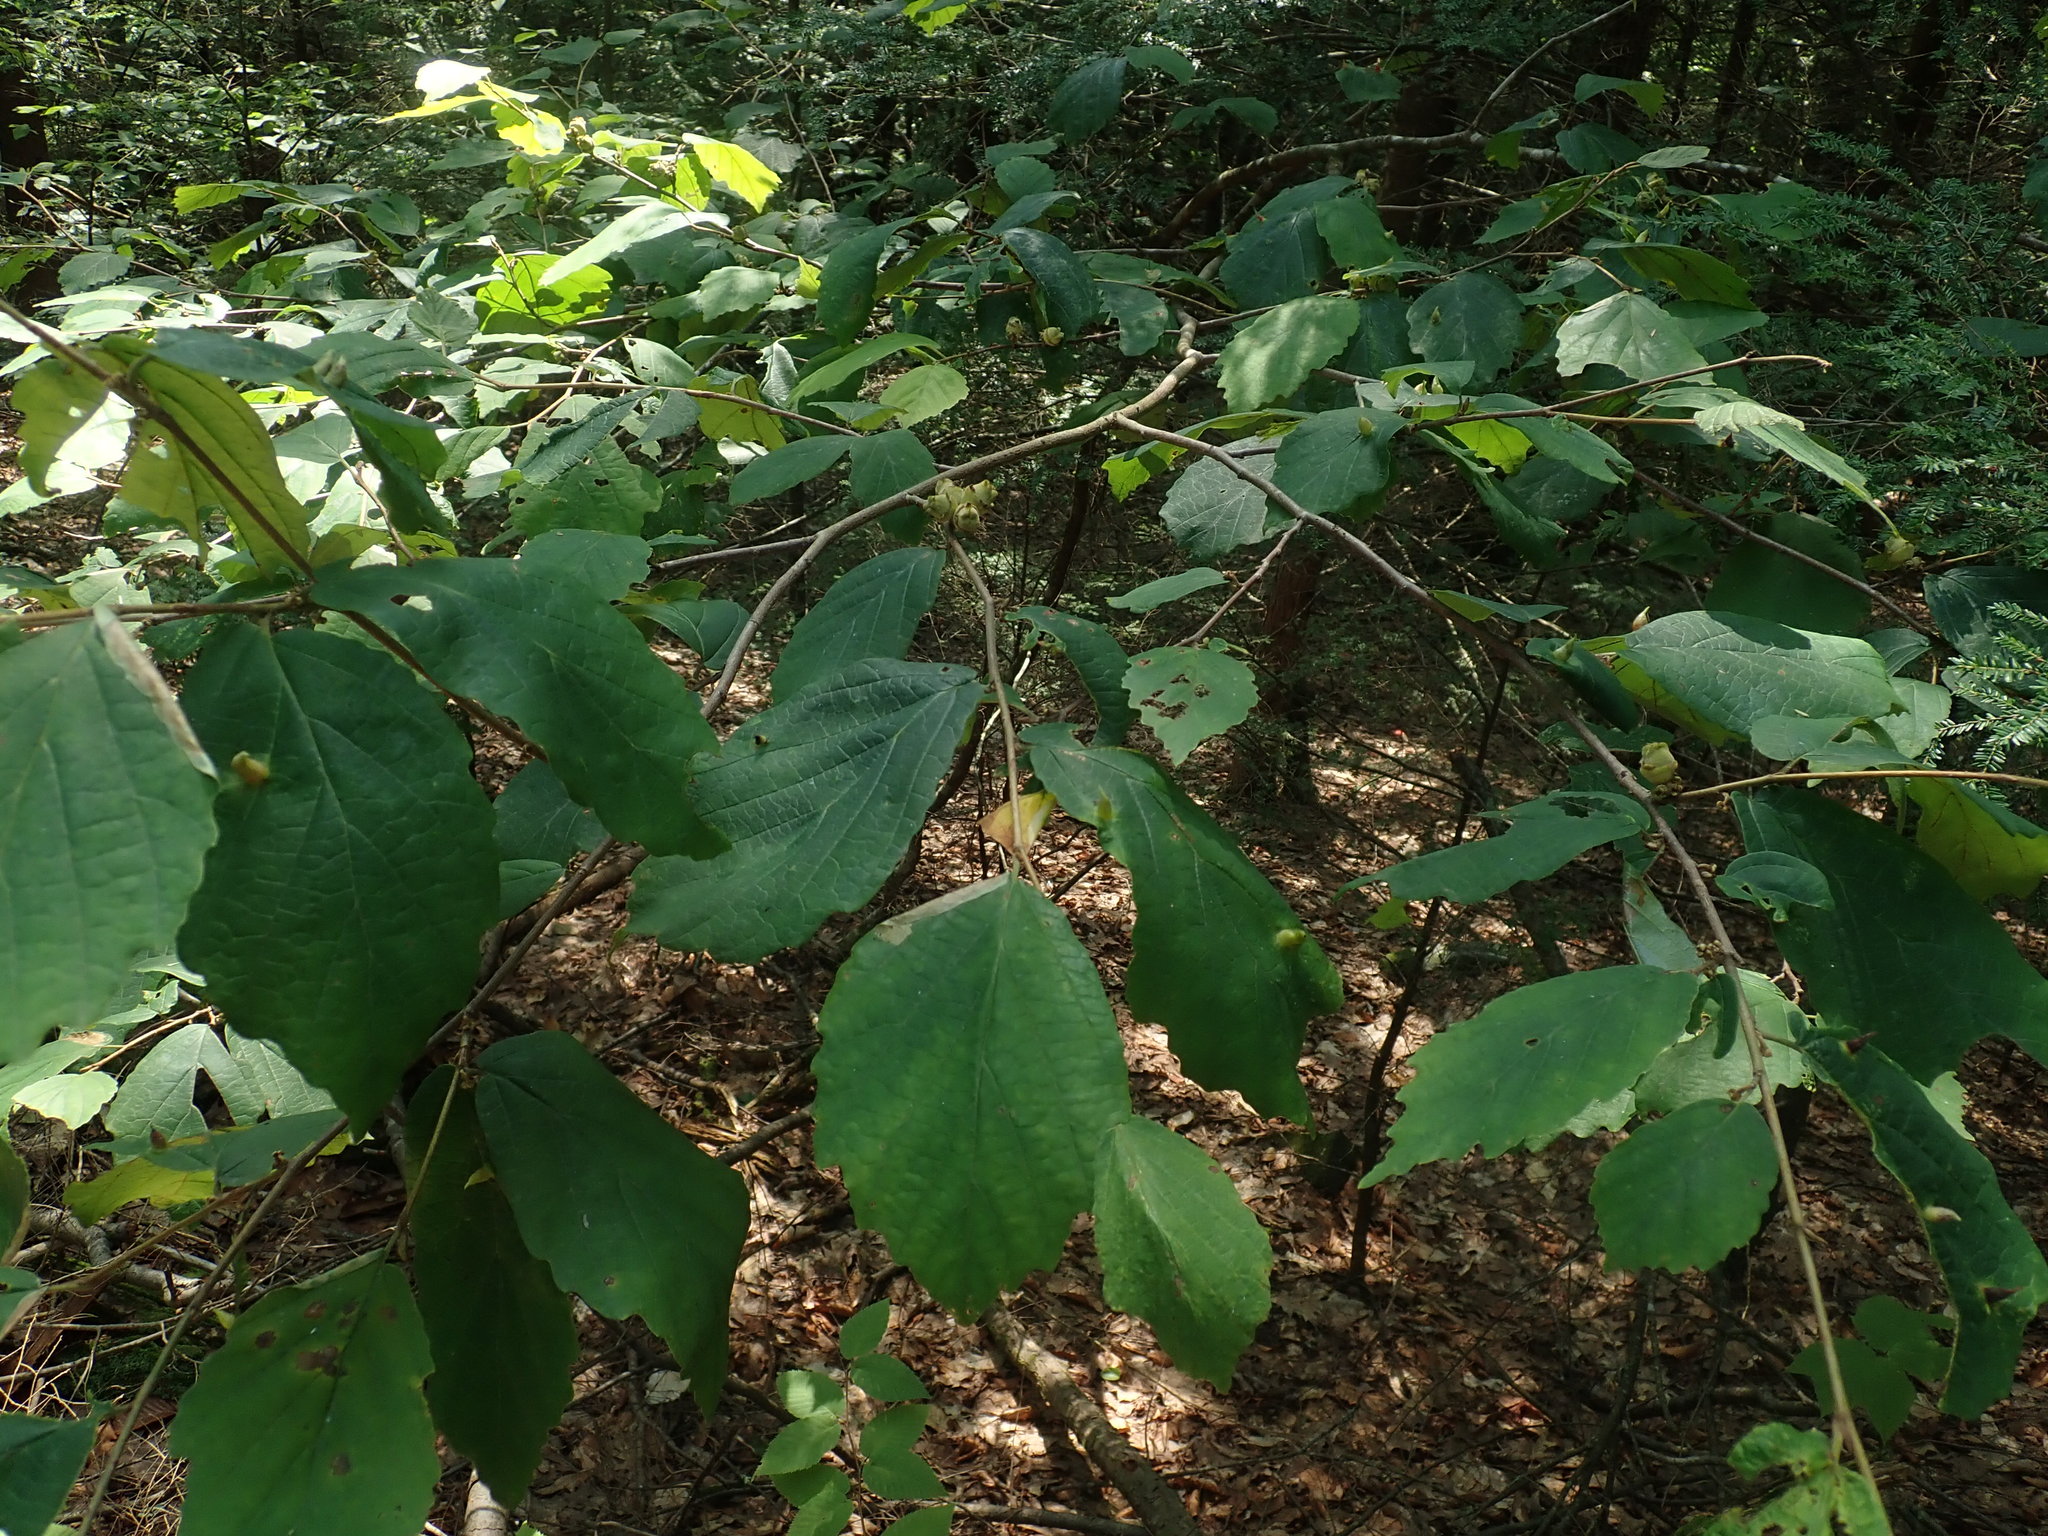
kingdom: Plantae
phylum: Tracheophyta
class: Magnoliopsida
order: Saxifragales
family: Hamamelidaceae
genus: Hamamelis
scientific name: Hamamelis virginiana
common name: Witch-hazel
